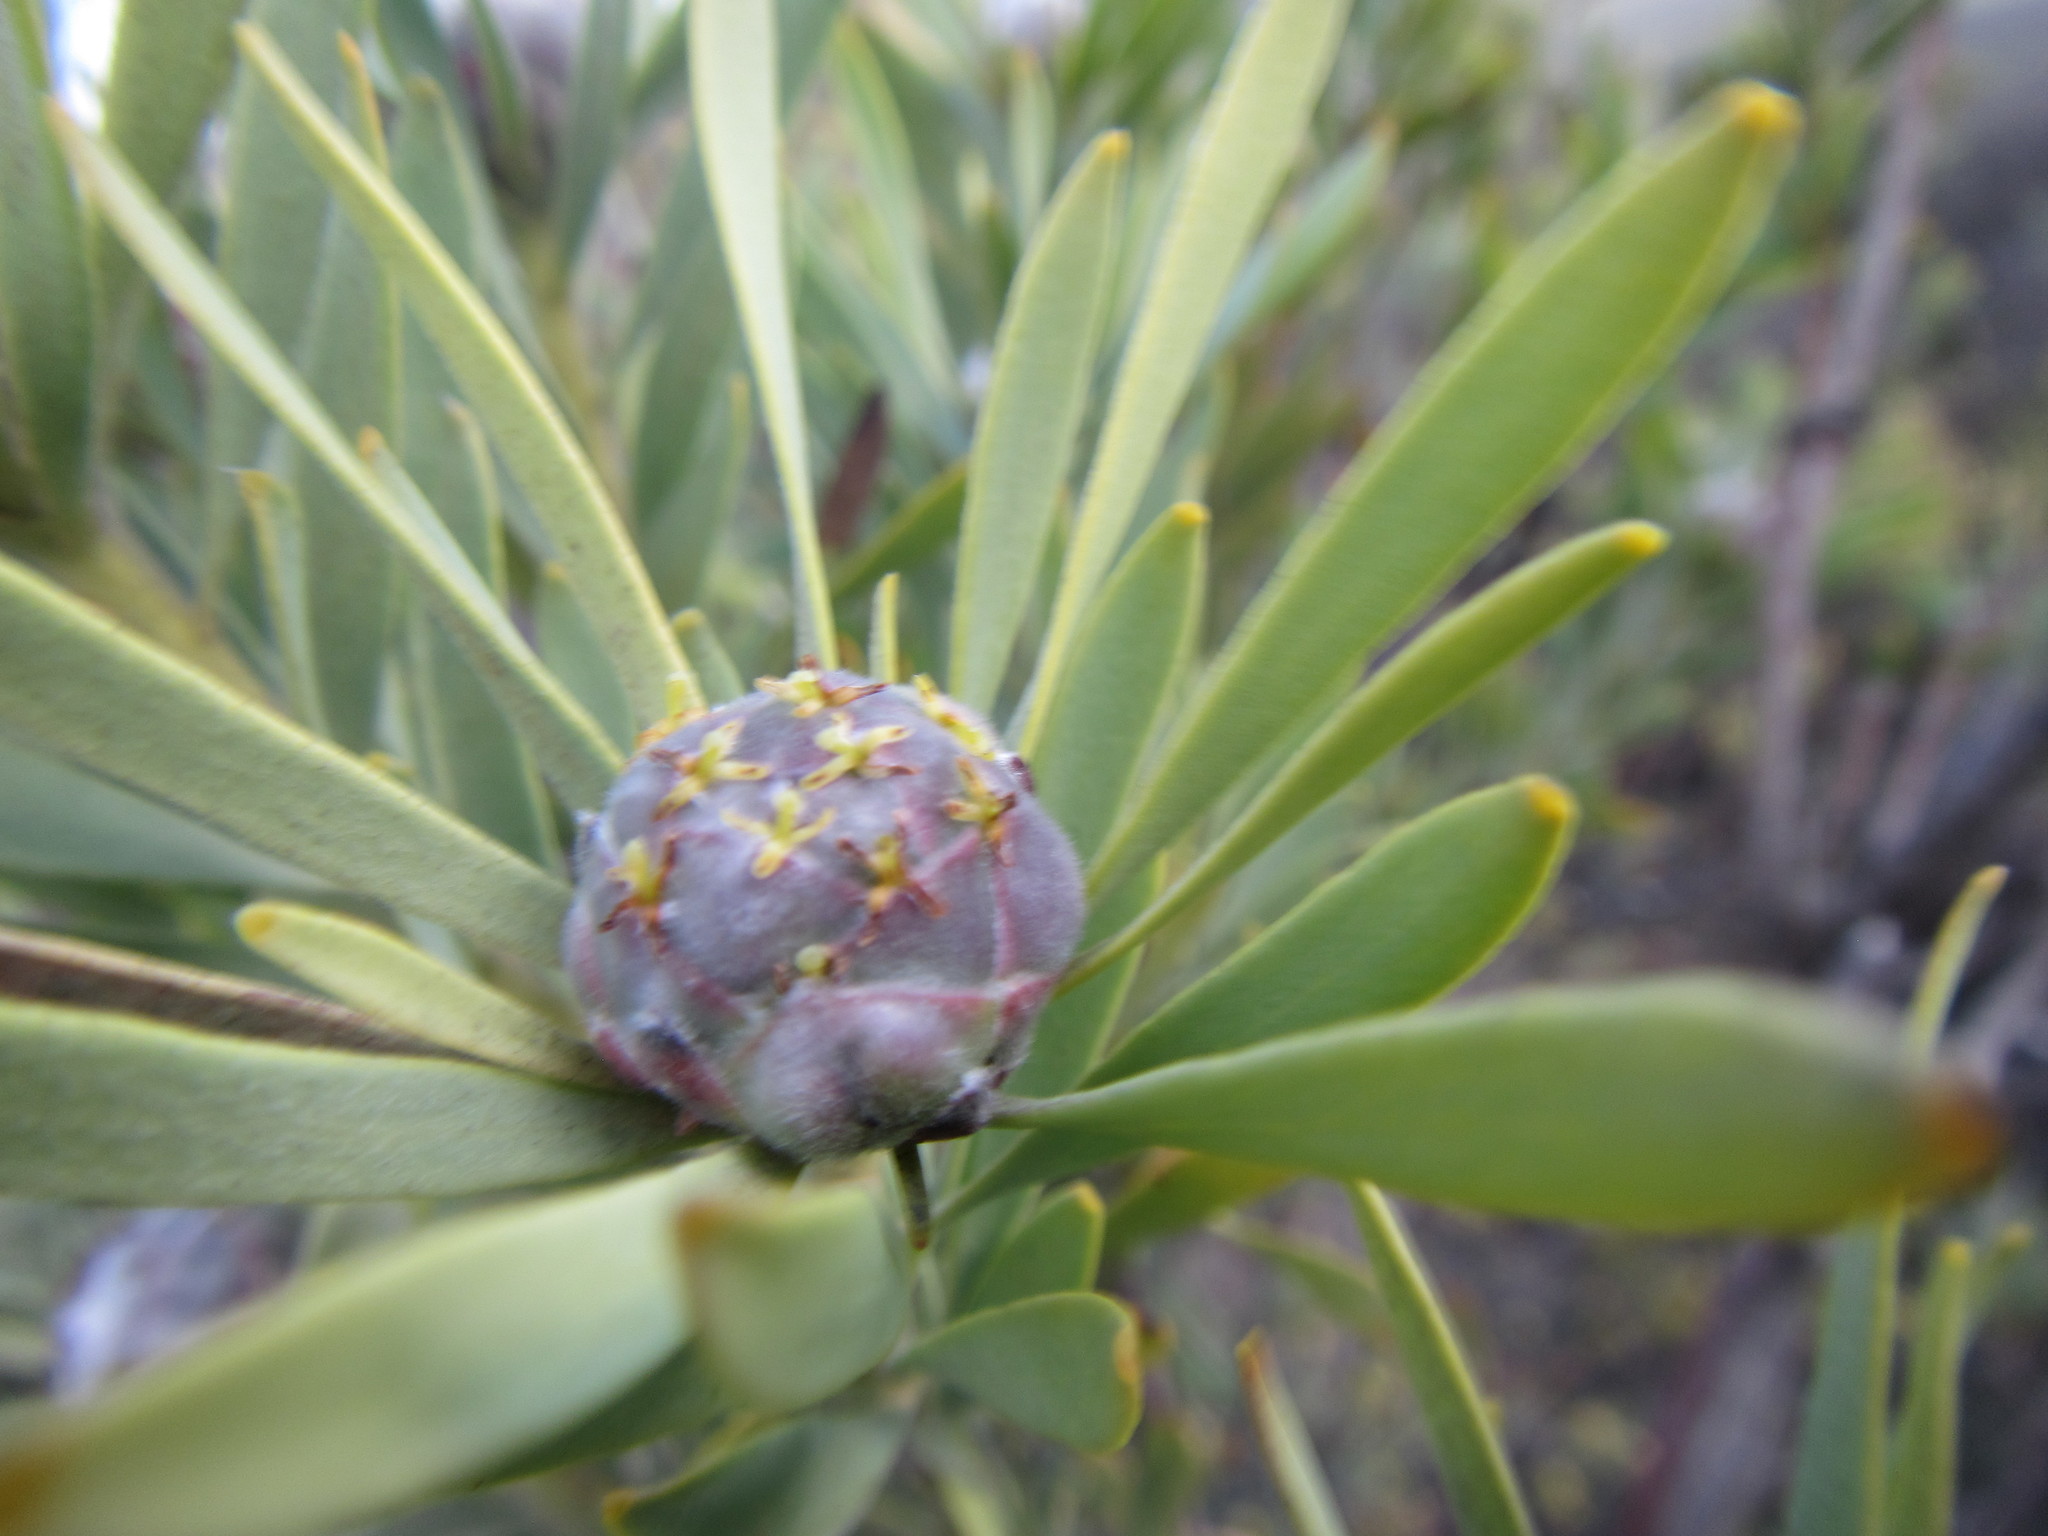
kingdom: Plantae
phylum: Tracheophyta
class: Magnoliopsida
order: Proteales
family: Proteaceae
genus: Leucadendron
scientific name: Leucadendron pubescens
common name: Grey conebush
